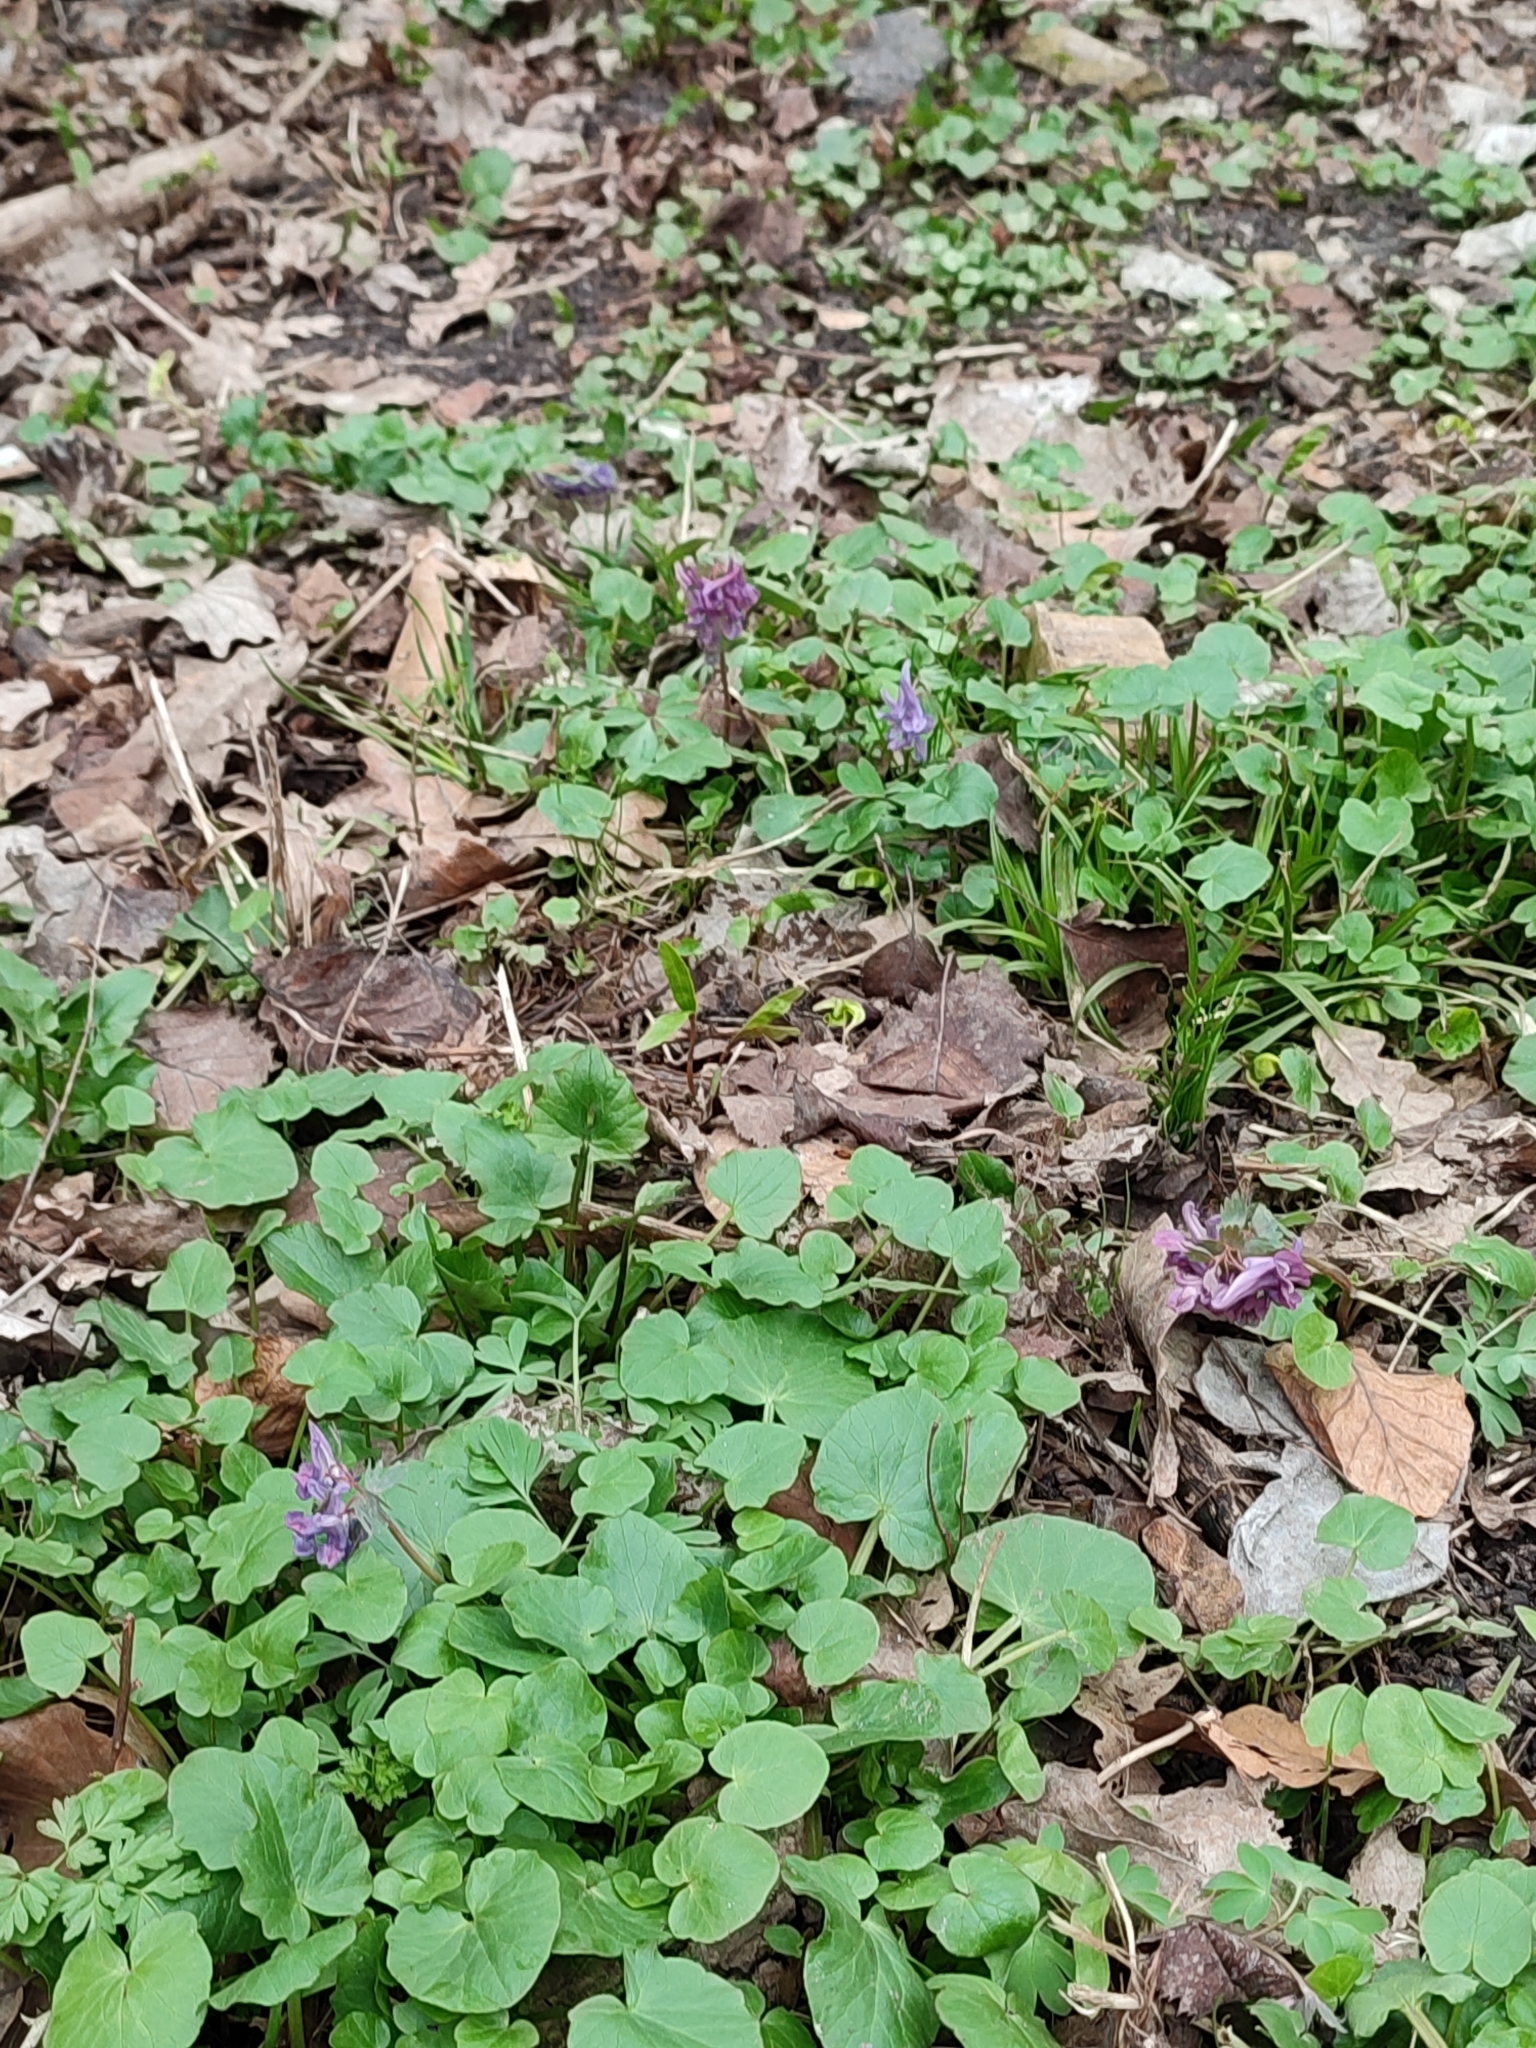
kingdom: Plantae
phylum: Tracheophyta
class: Magnoliopsida
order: Ranunculales
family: Papaveraceae
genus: Corydalis
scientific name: Corydalis solida
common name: Bird-in-a-bush
